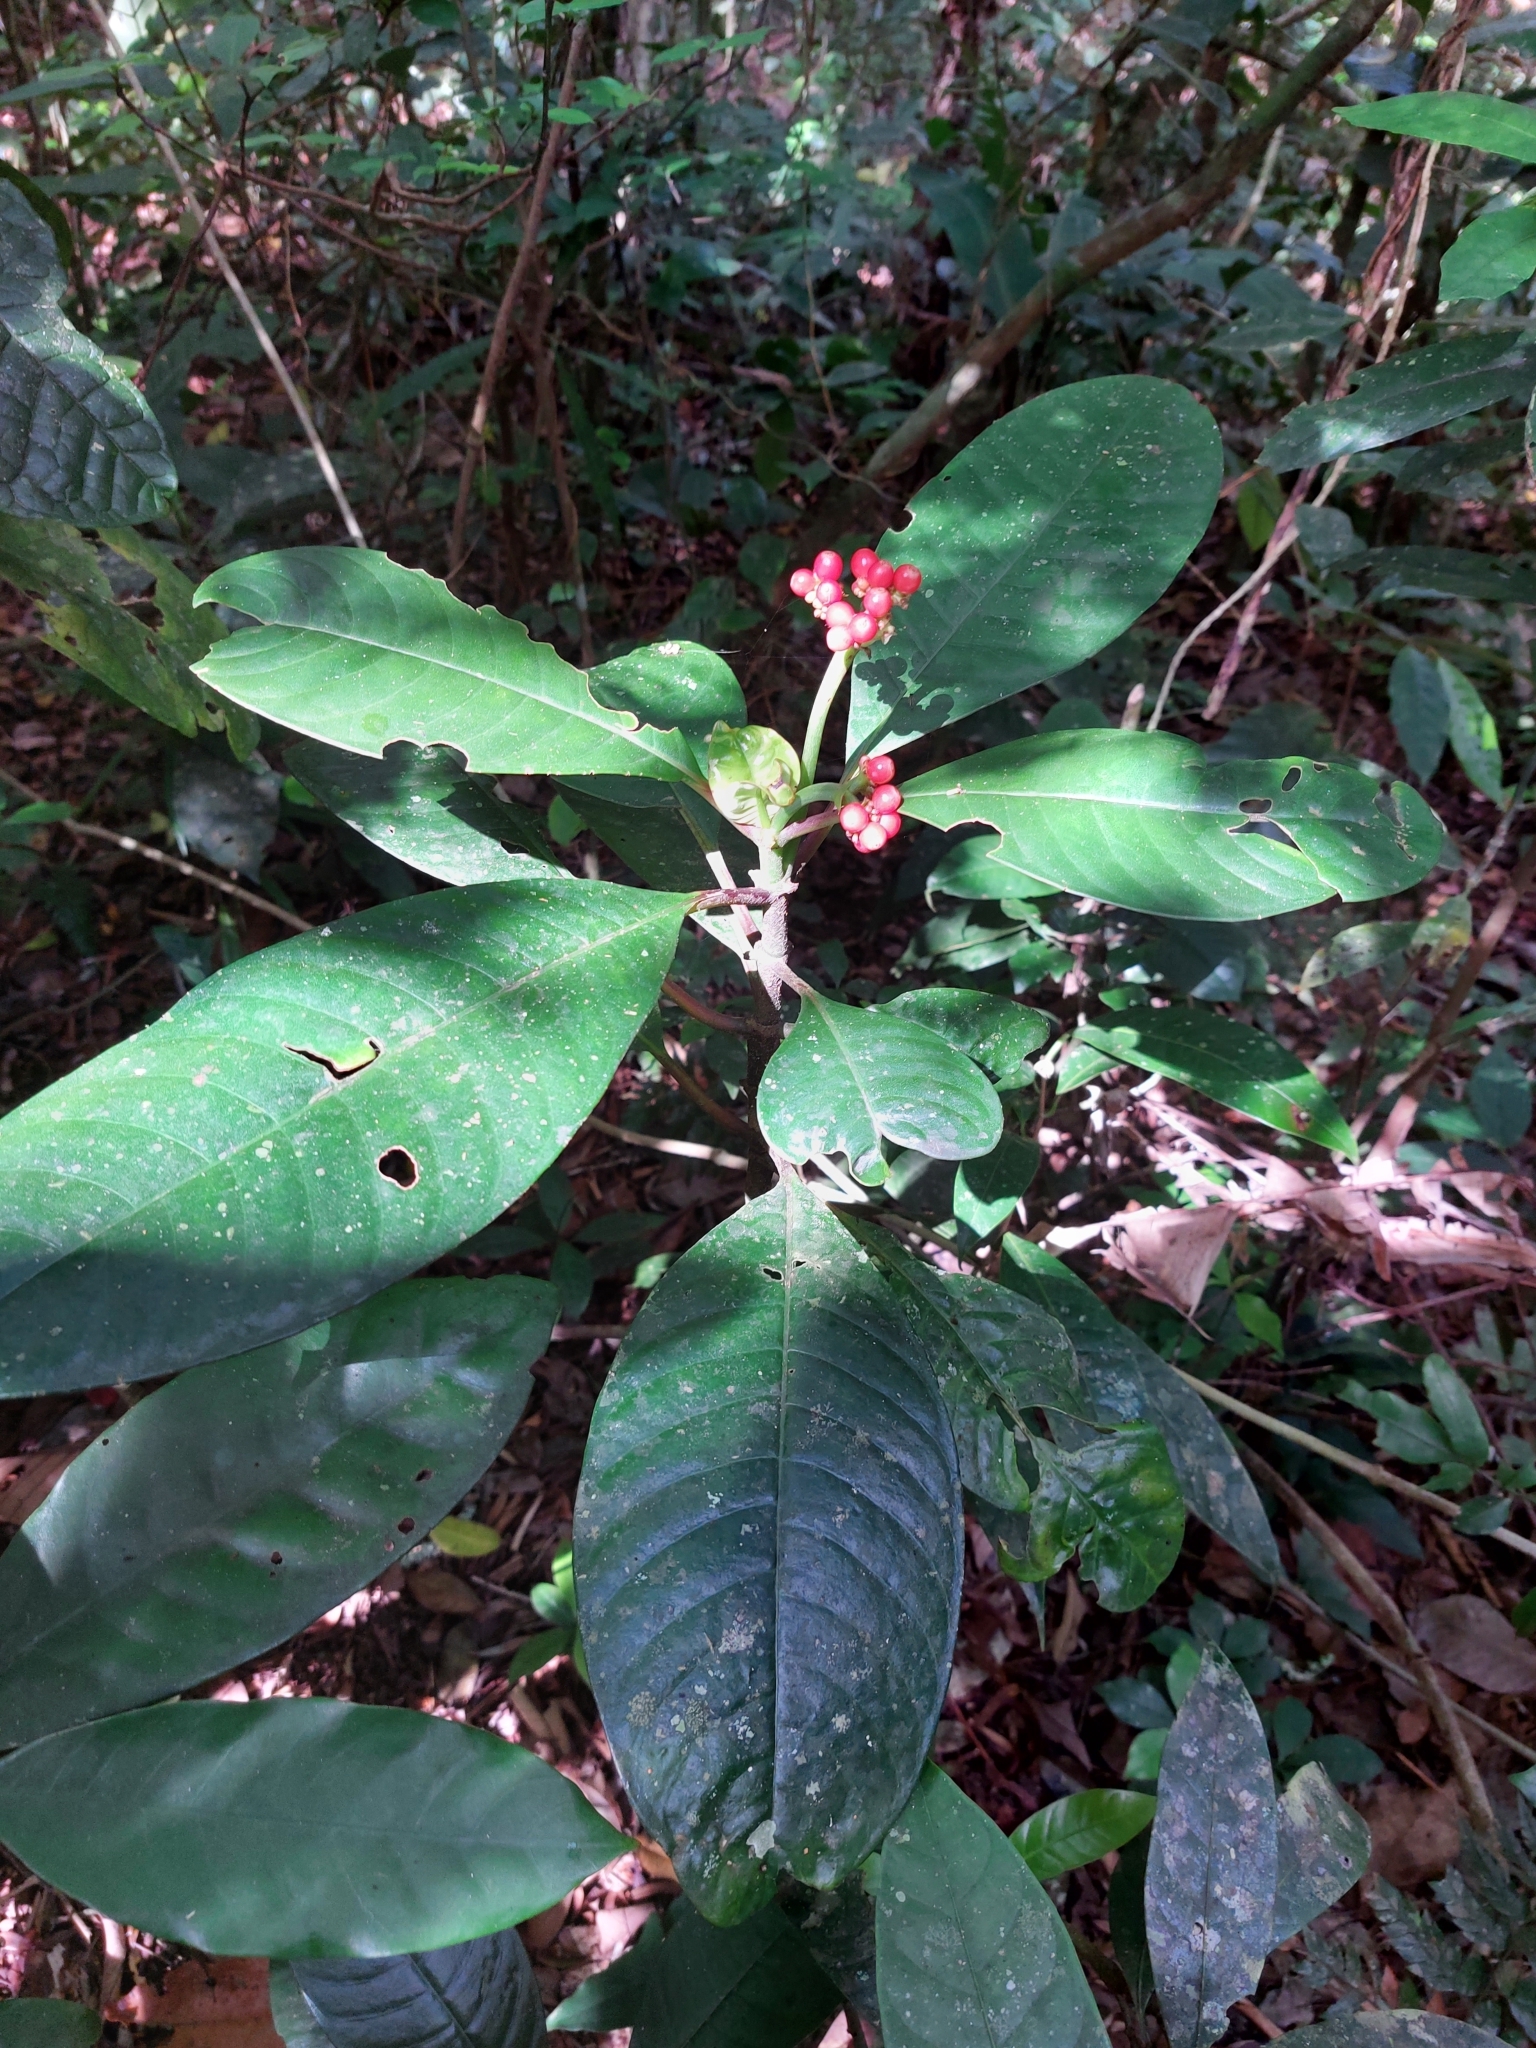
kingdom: Plantae
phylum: Tracheophyta
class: Magnoliopsida
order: Gentianales
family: Rubiaceae
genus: Notopleura
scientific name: Notopleura uliginosa
